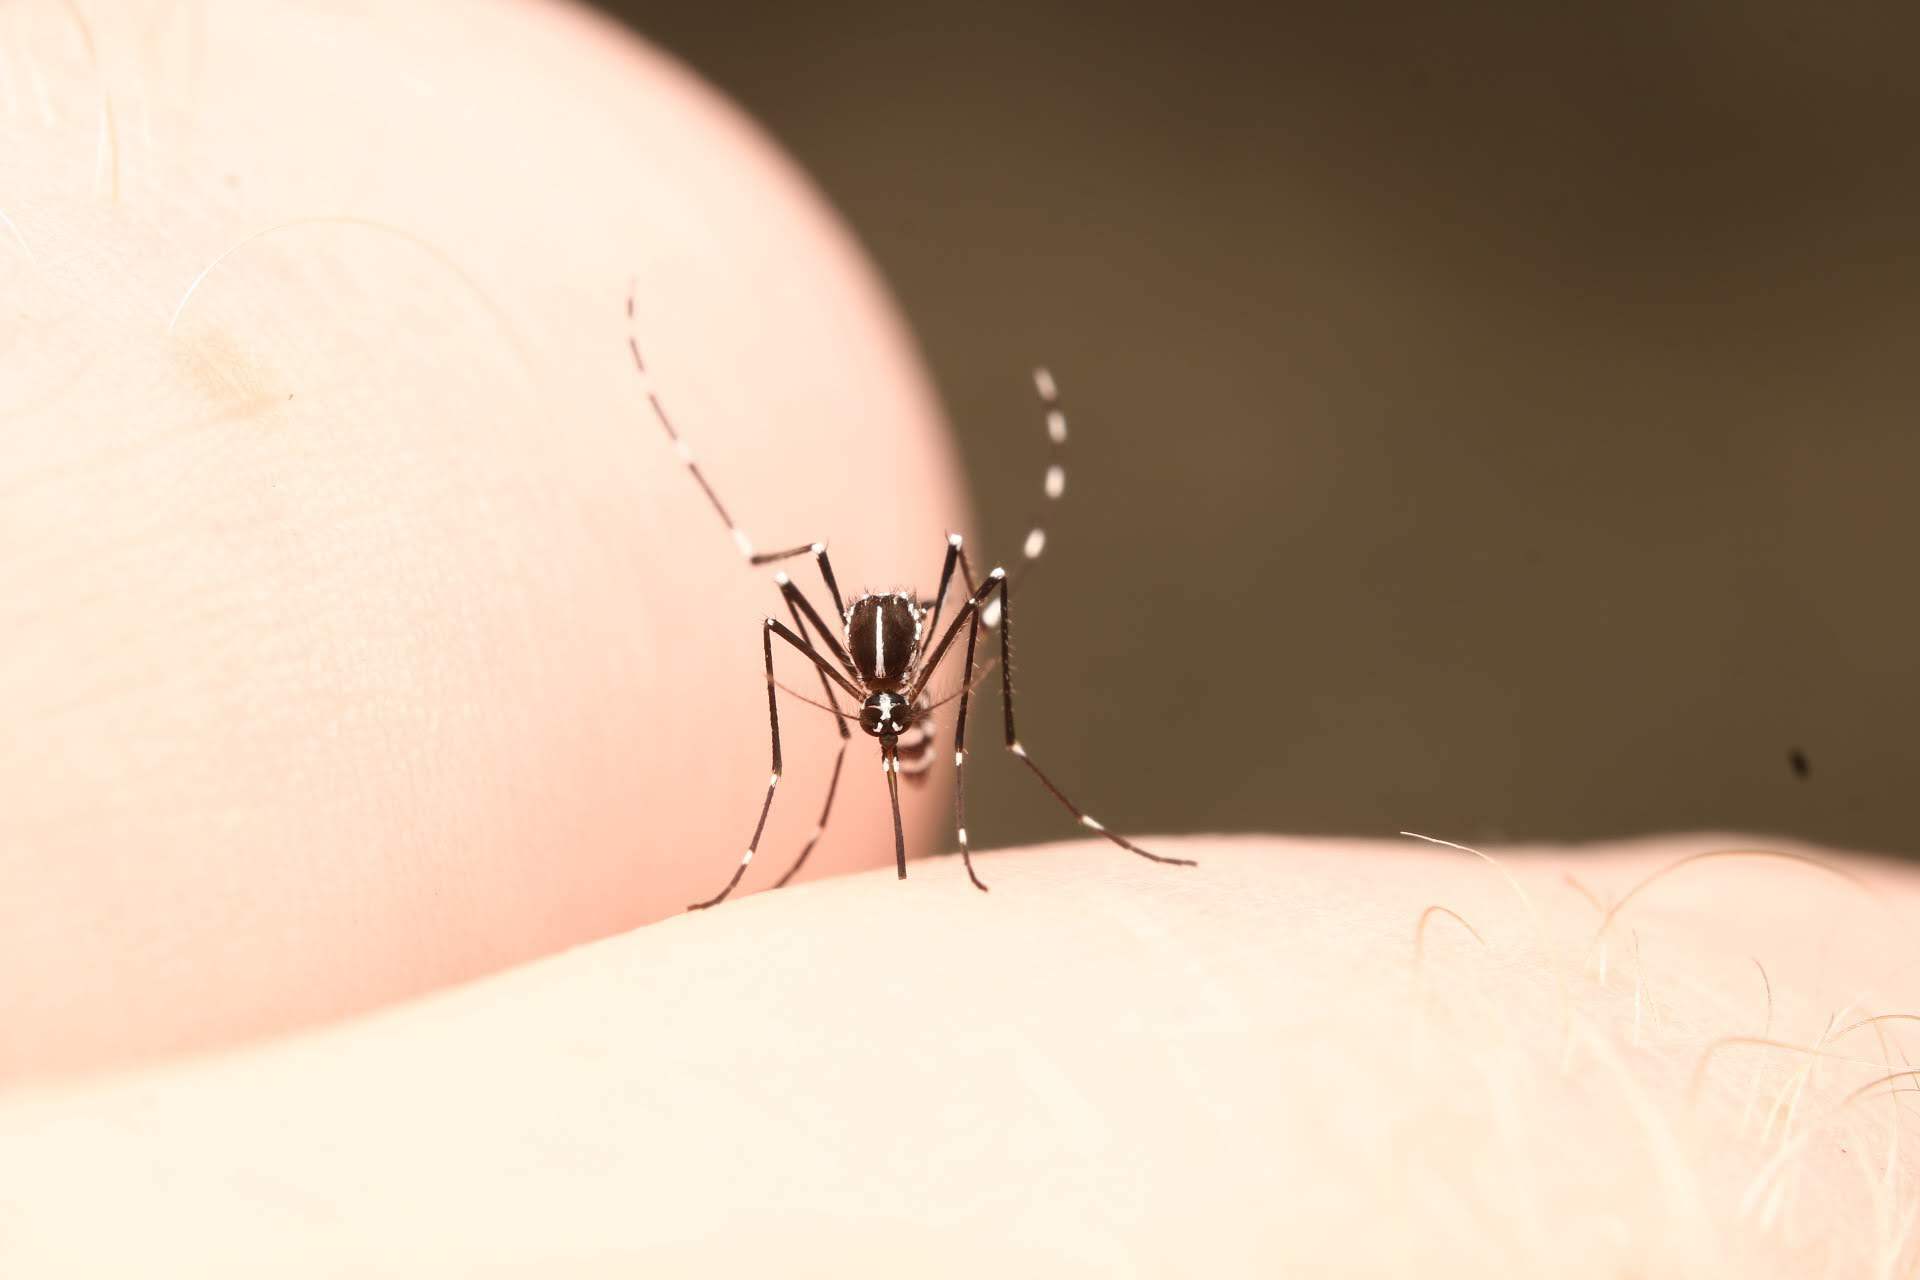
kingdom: Animalia
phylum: Arthropoda
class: Insecta
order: Diptera
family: Culicidae
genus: Aedes
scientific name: Aedes albopictus
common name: Tiger mosquito
